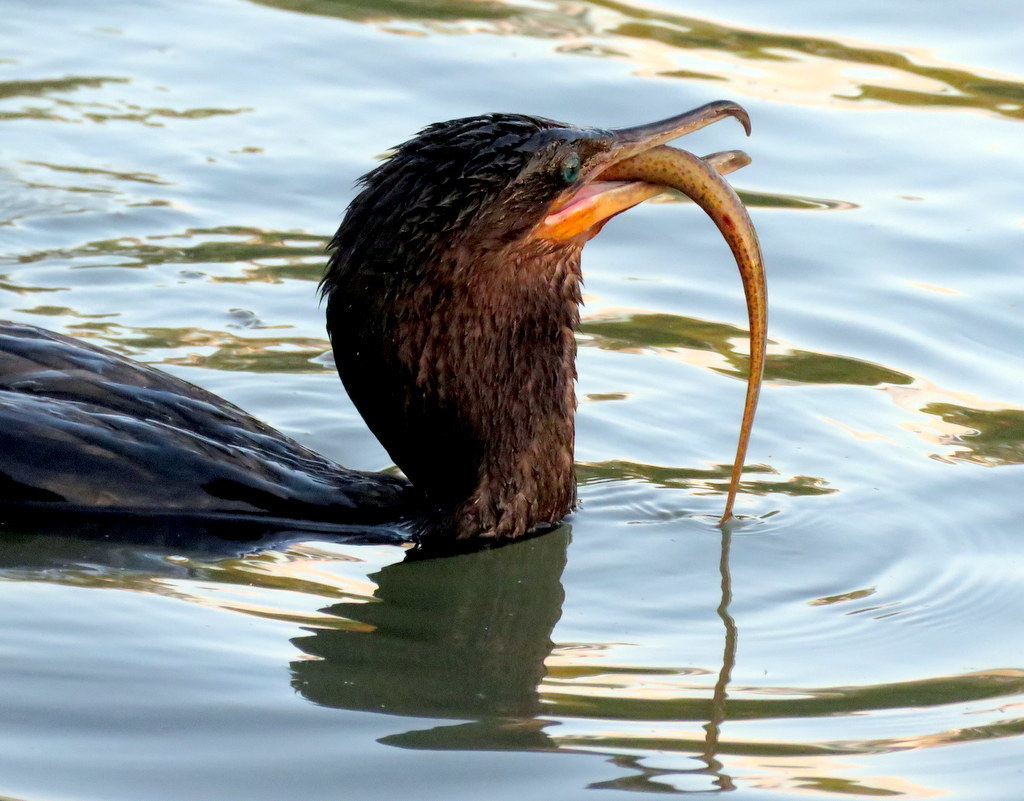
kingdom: Animalia
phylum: Chordata
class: Aves
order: Suliformes
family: Phalacrocoracidae
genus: Phalacrocorax
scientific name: Phalacrocorax brasilianus
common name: Neotropic cormorant
